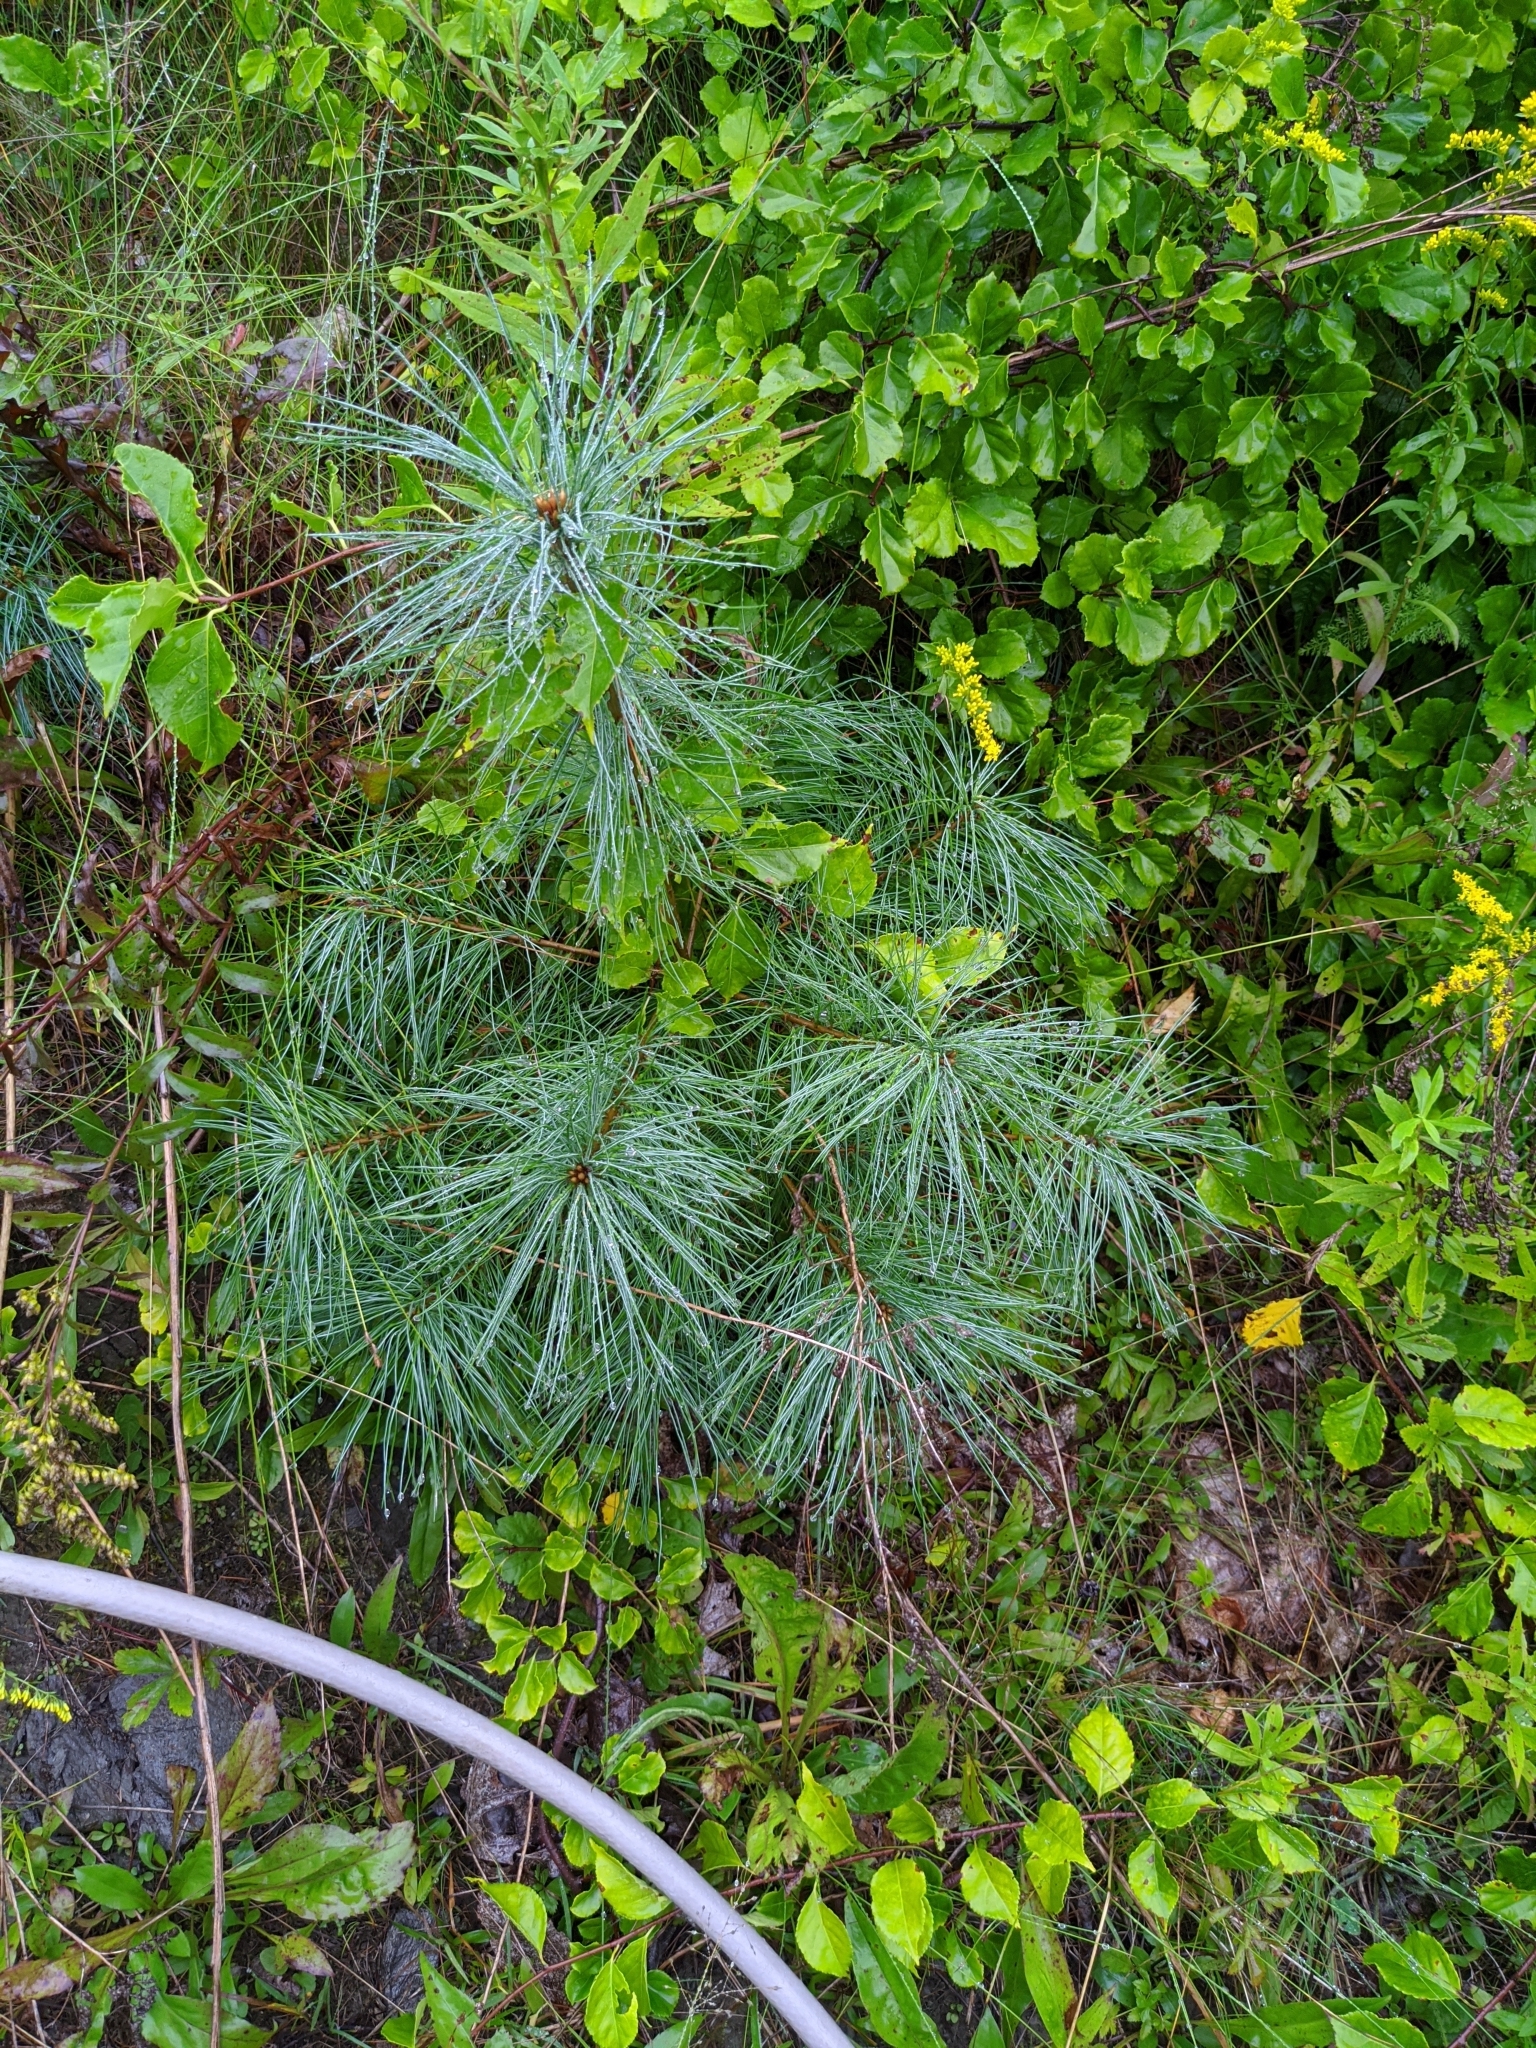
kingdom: Plantae
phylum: Tracheophyta
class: Pinopsida
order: Pinales
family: Pinaceae
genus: Pinus
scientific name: Pinus strobus
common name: Weymouth pine
